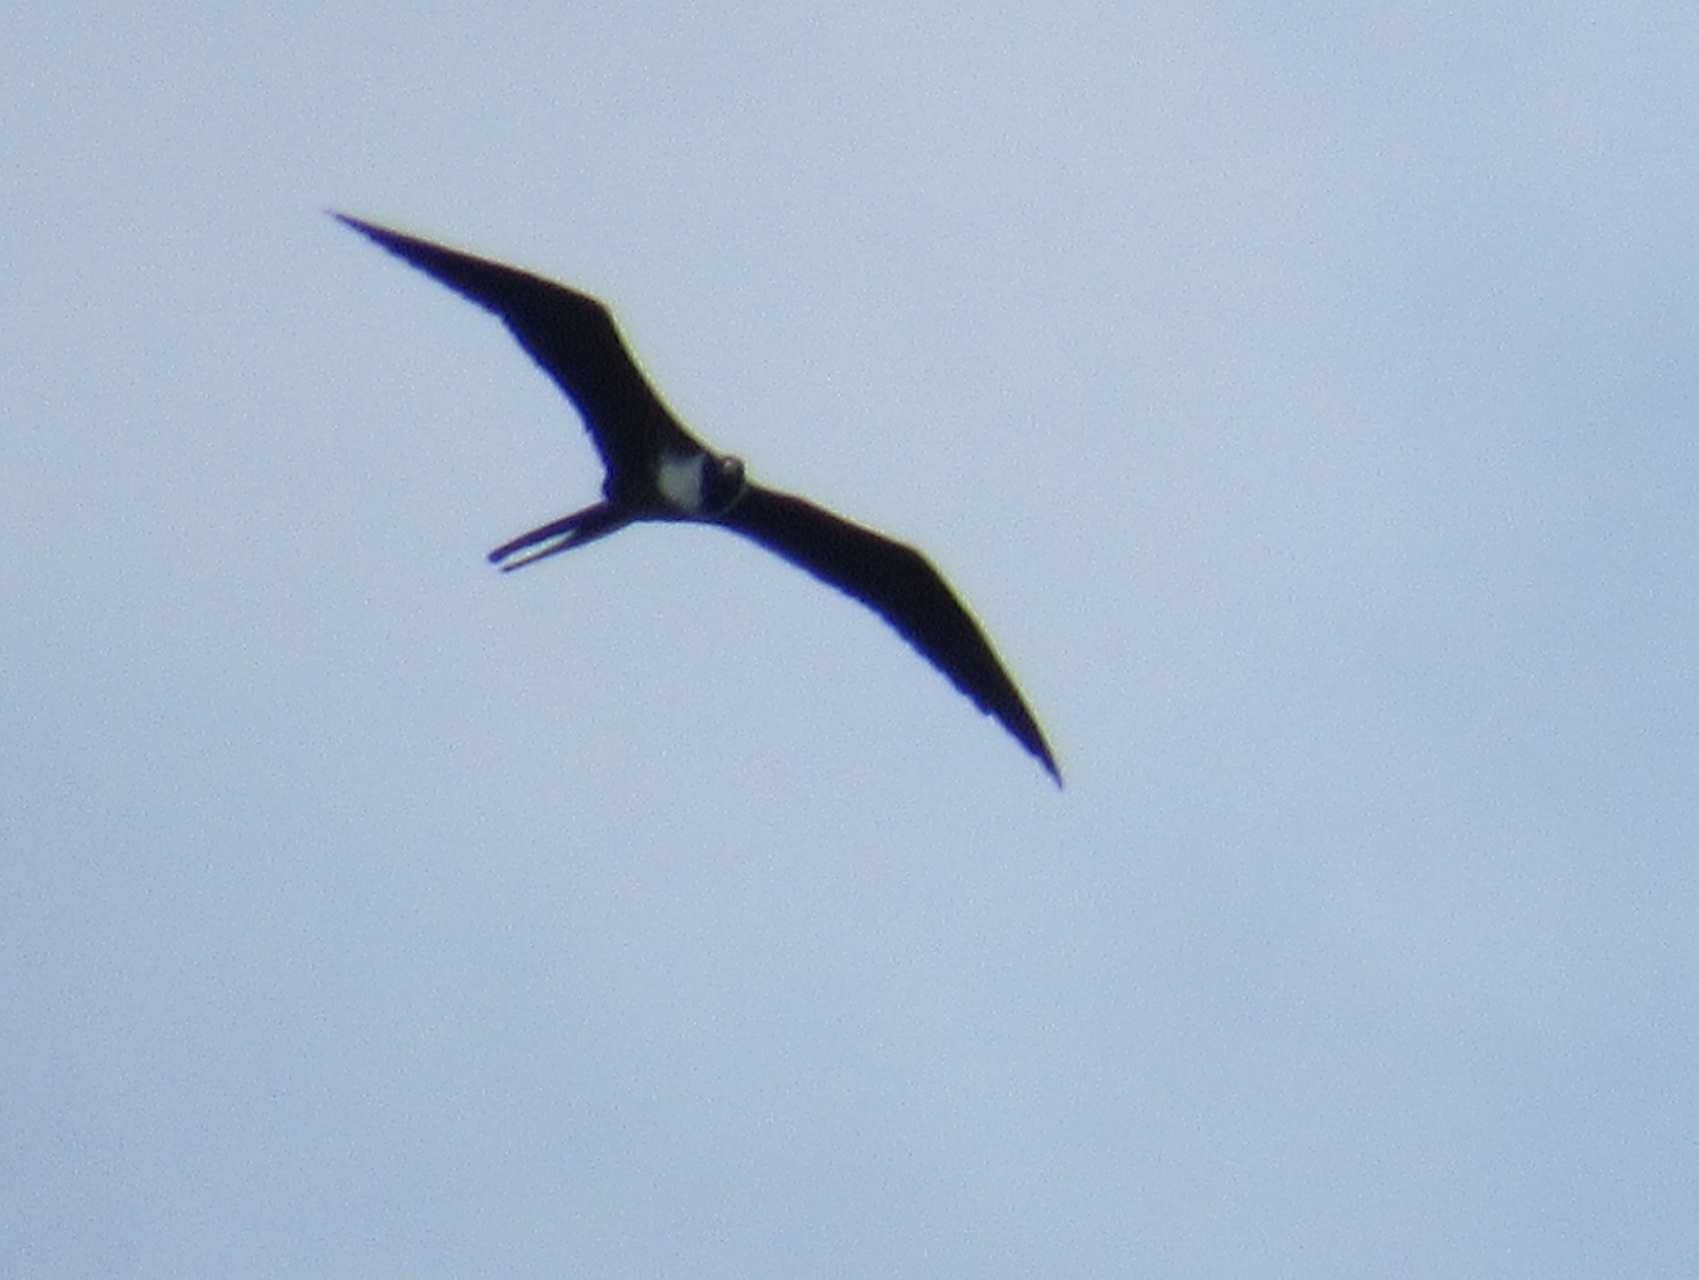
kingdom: Animalia
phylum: Chordata
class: Aves
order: Suliformes
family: Fregatidae
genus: Fregata
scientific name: Fregata magnificens
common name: Magnificent frigatebird
